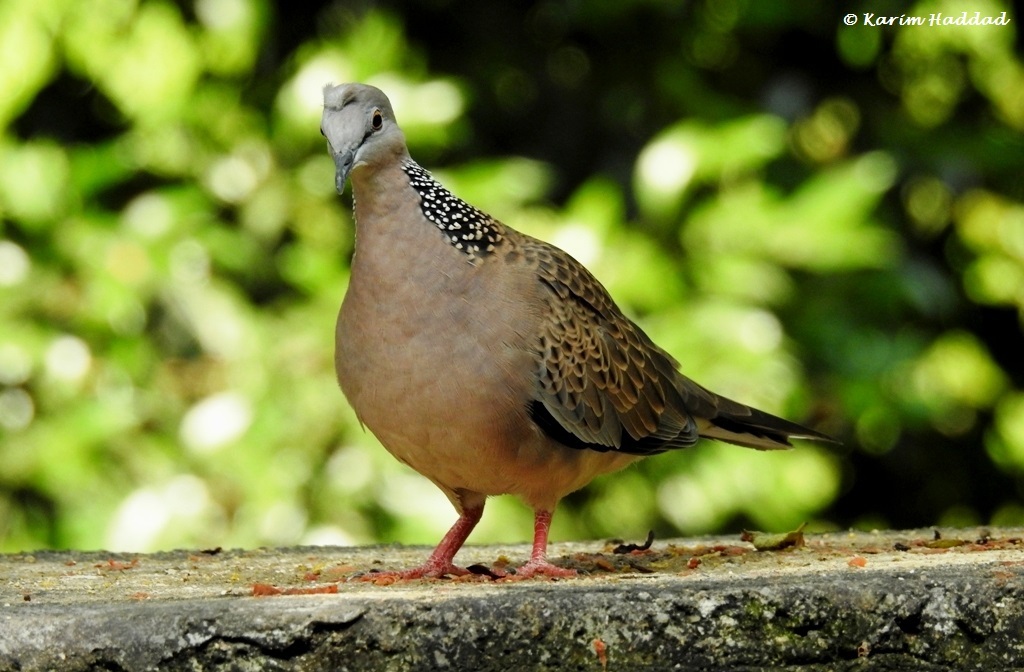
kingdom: Animalia
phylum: Chordata
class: Aves
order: Columbiformes
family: Columbidae
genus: Spilopelia
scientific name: Spilopelia chinensis
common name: Spotted dove
